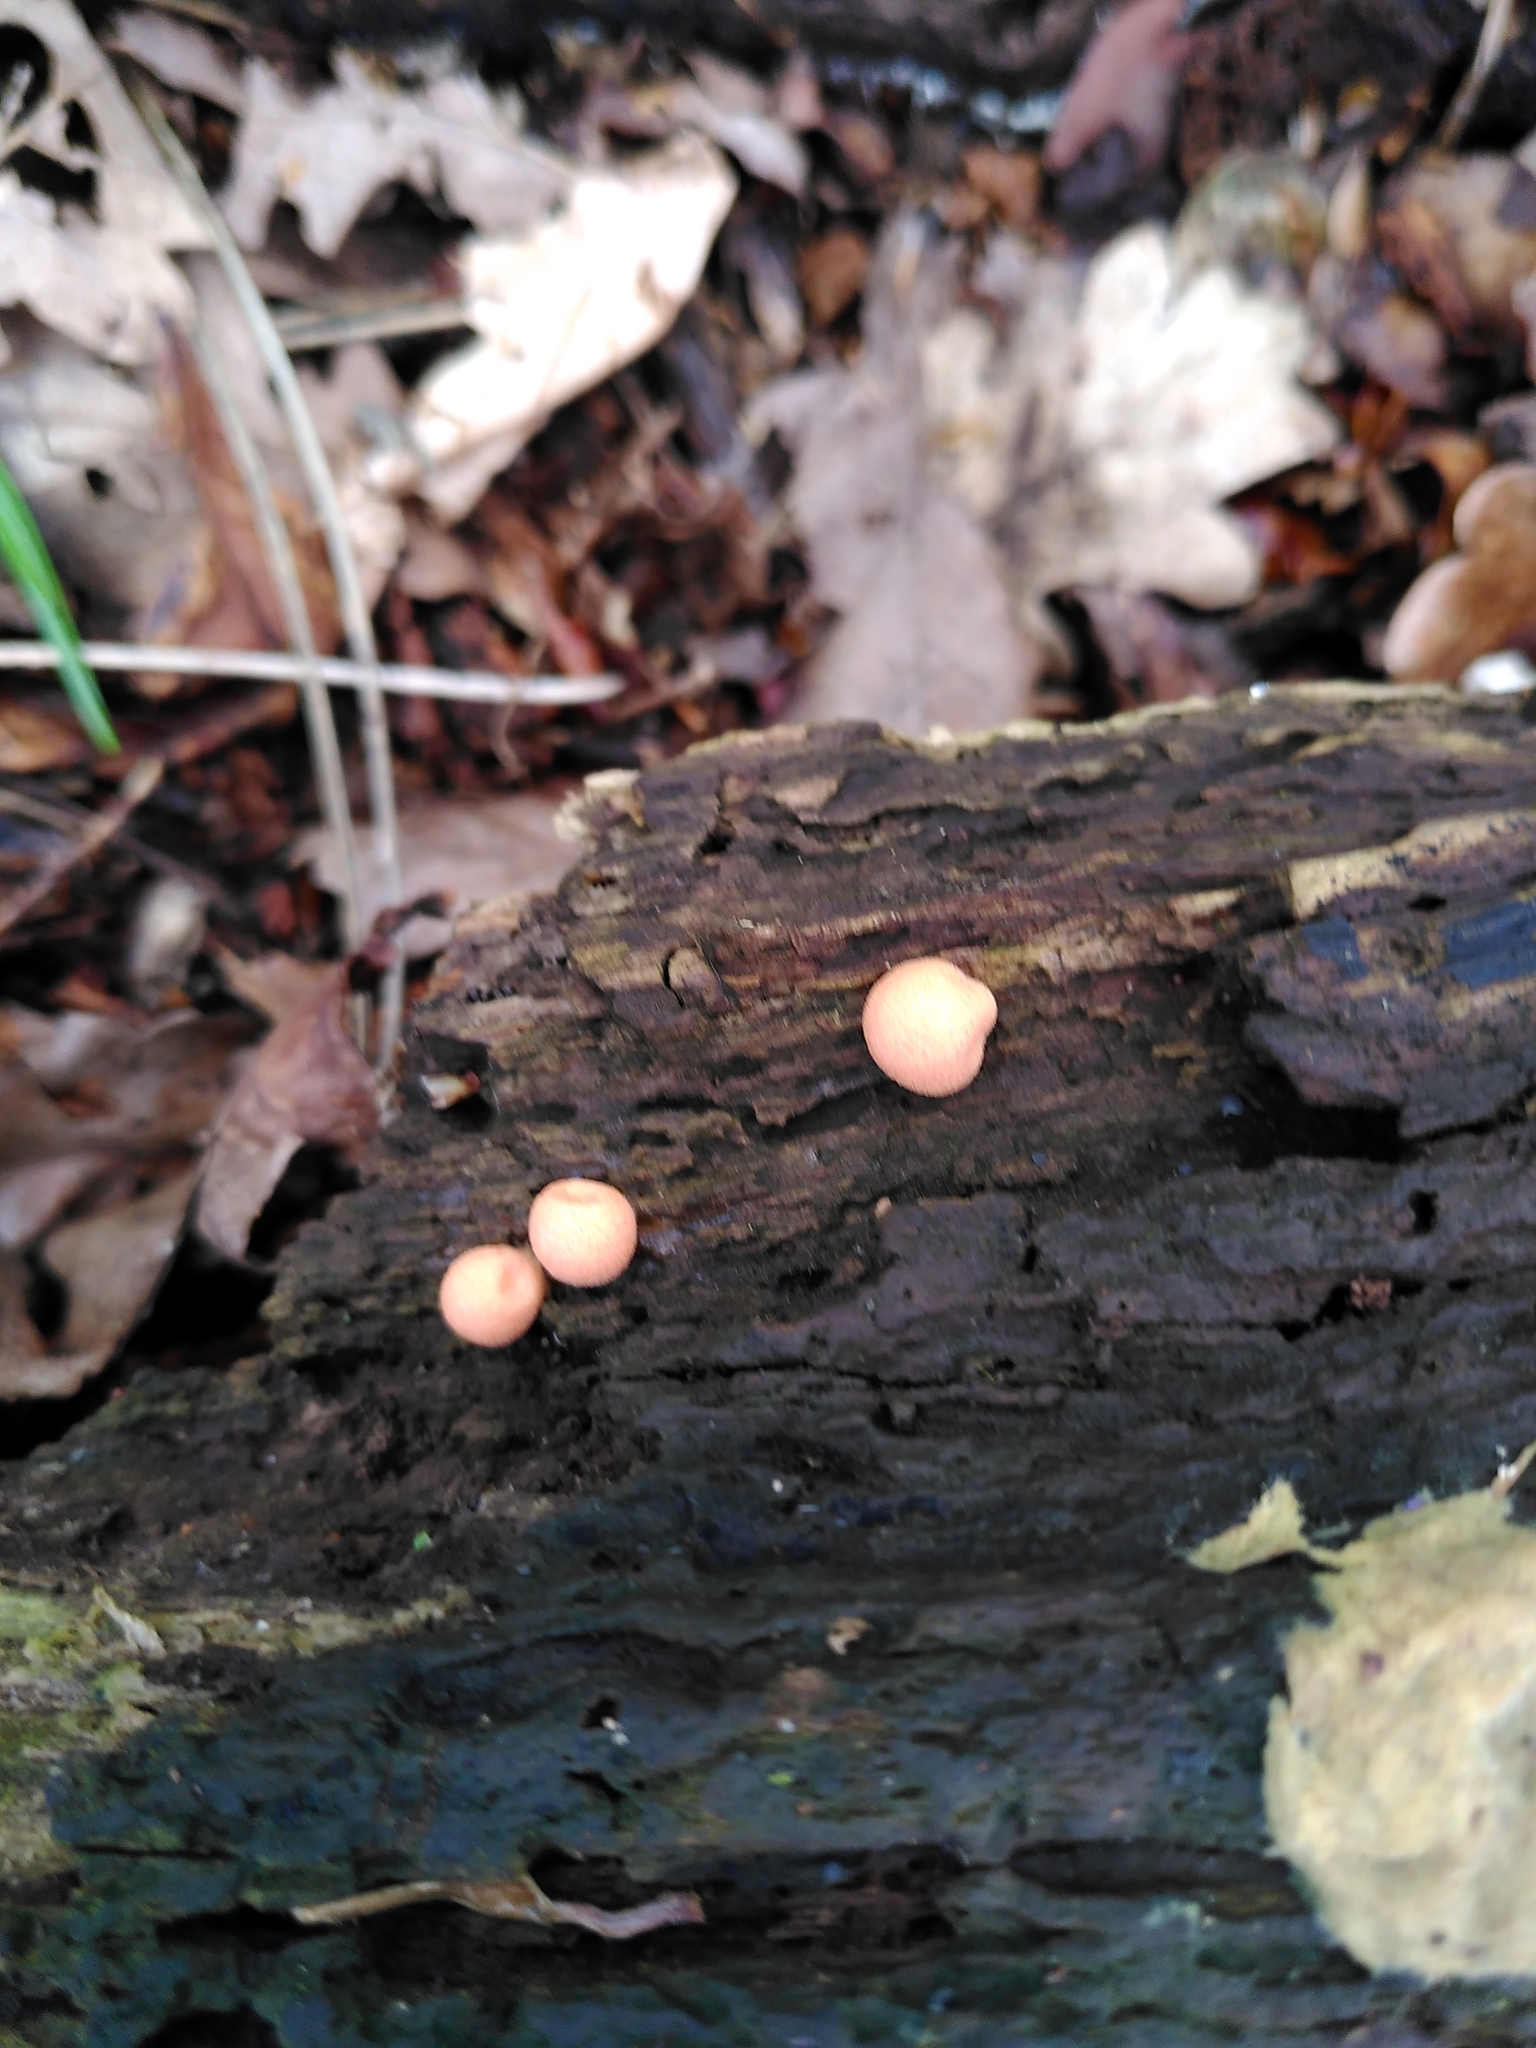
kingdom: Protozoa
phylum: Mycetozoa
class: Myxomycetes
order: Cribrariales
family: Tubiferaceae
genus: Lycogala
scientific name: Lycogala epidendrum
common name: Wolf's milk
